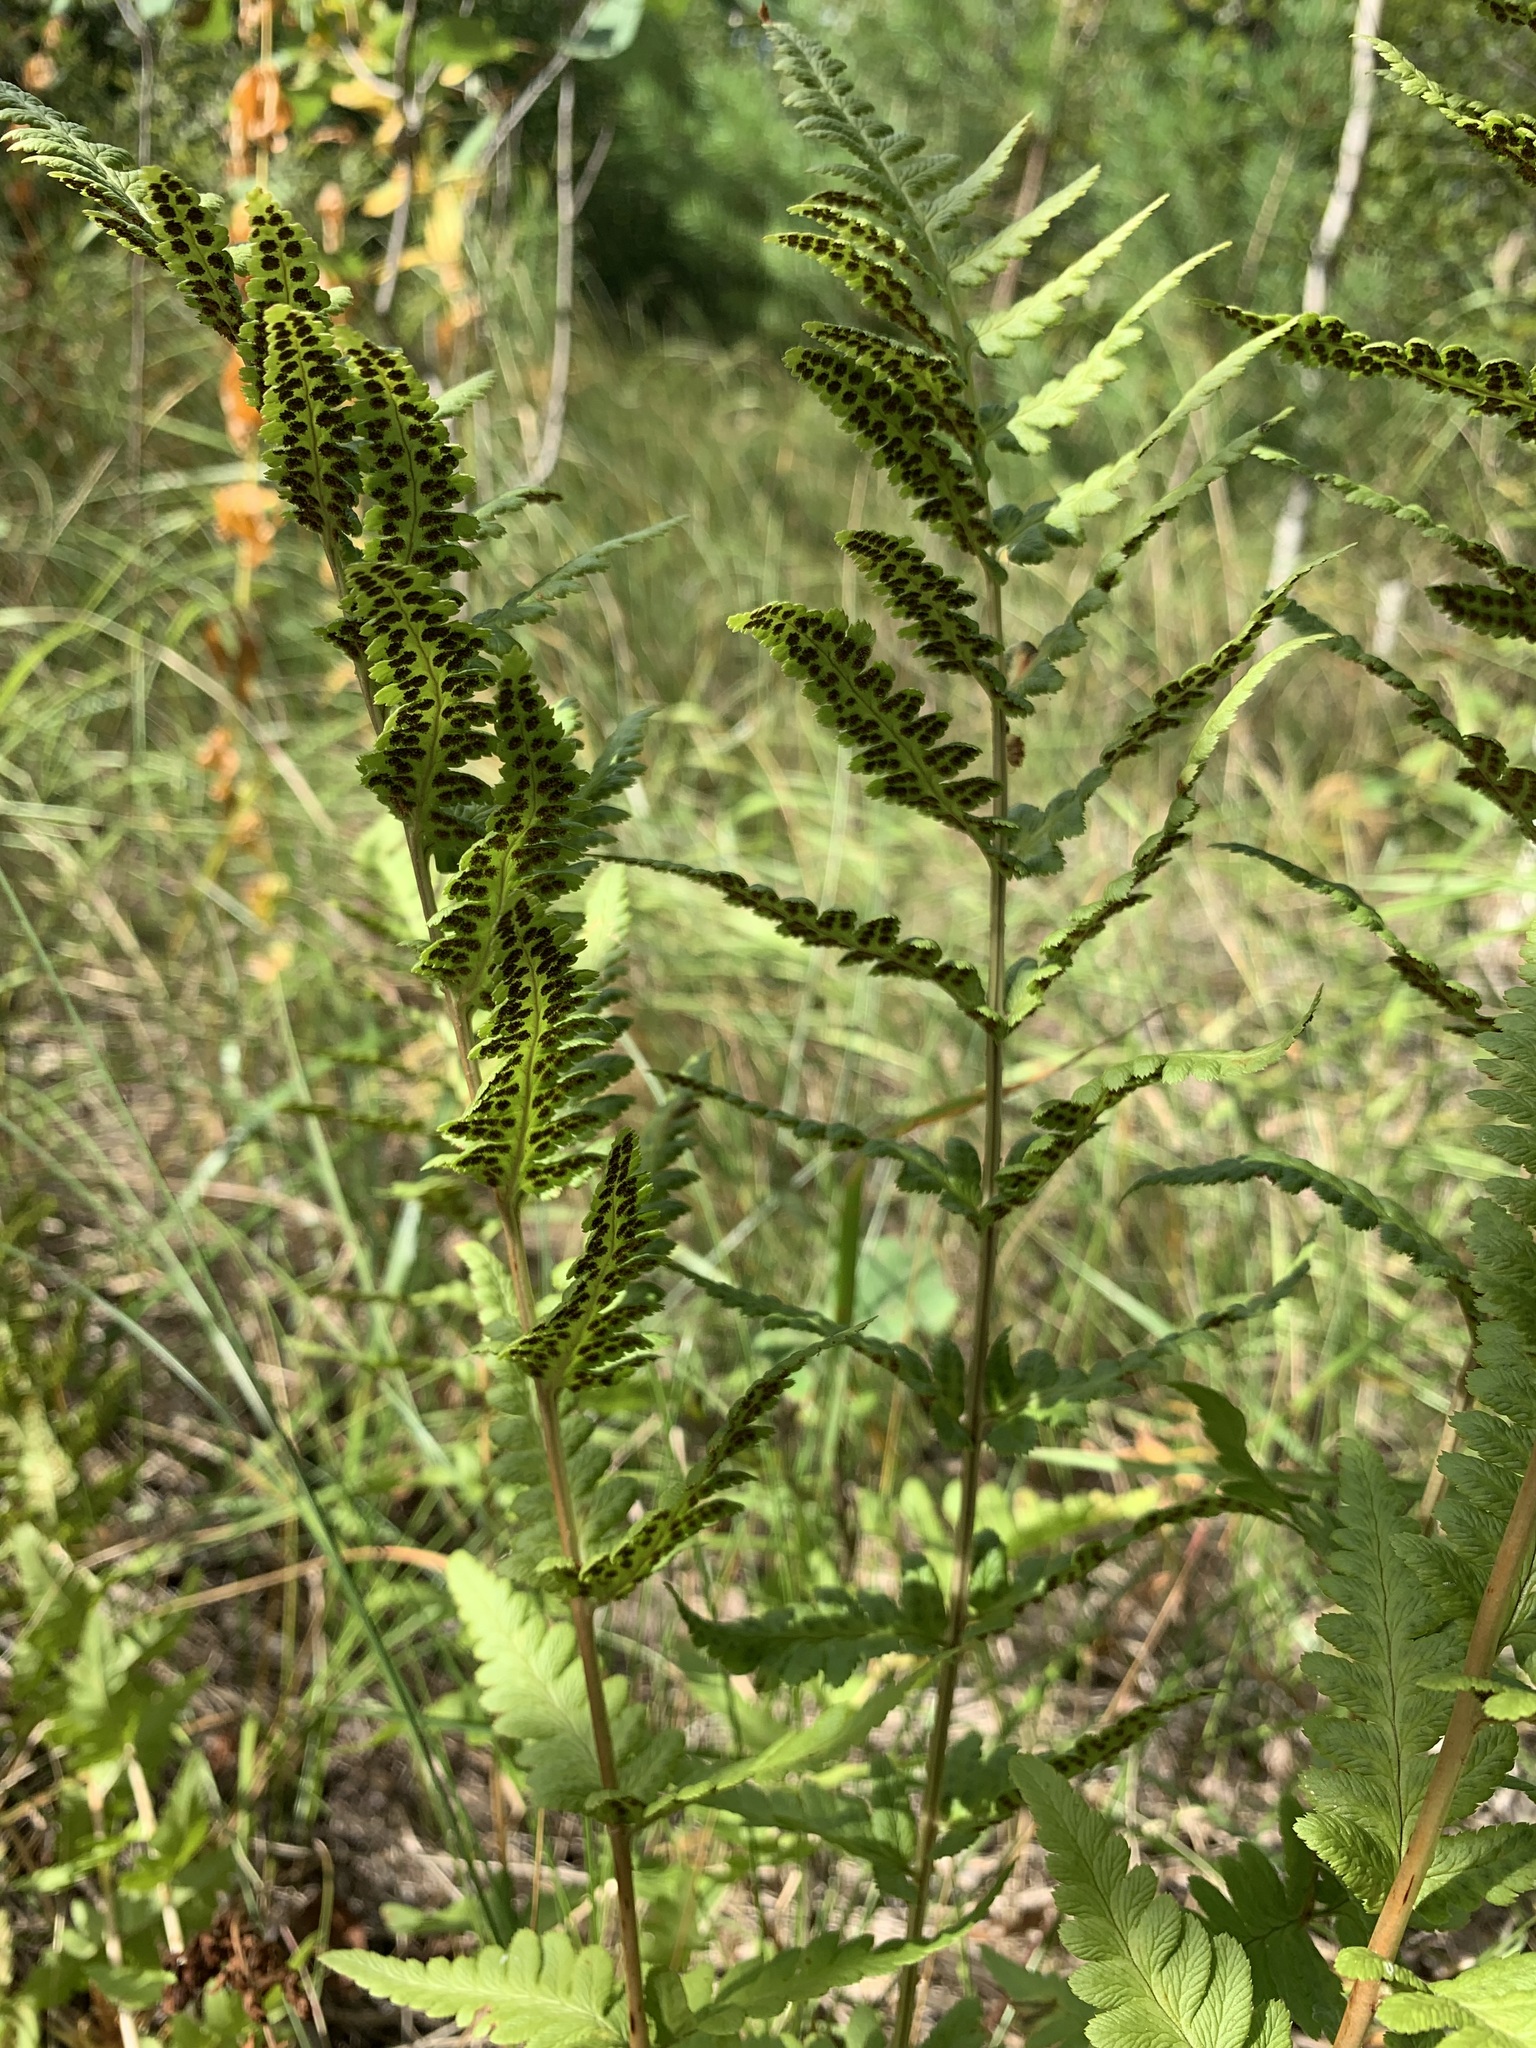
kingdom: Plantae
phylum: Tracheophyta
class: Polypodiopsida
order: Polypodiales
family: Dryopteridaceae
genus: Dryopteris
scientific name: Dryopteris cristata
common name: Crested wood fern
